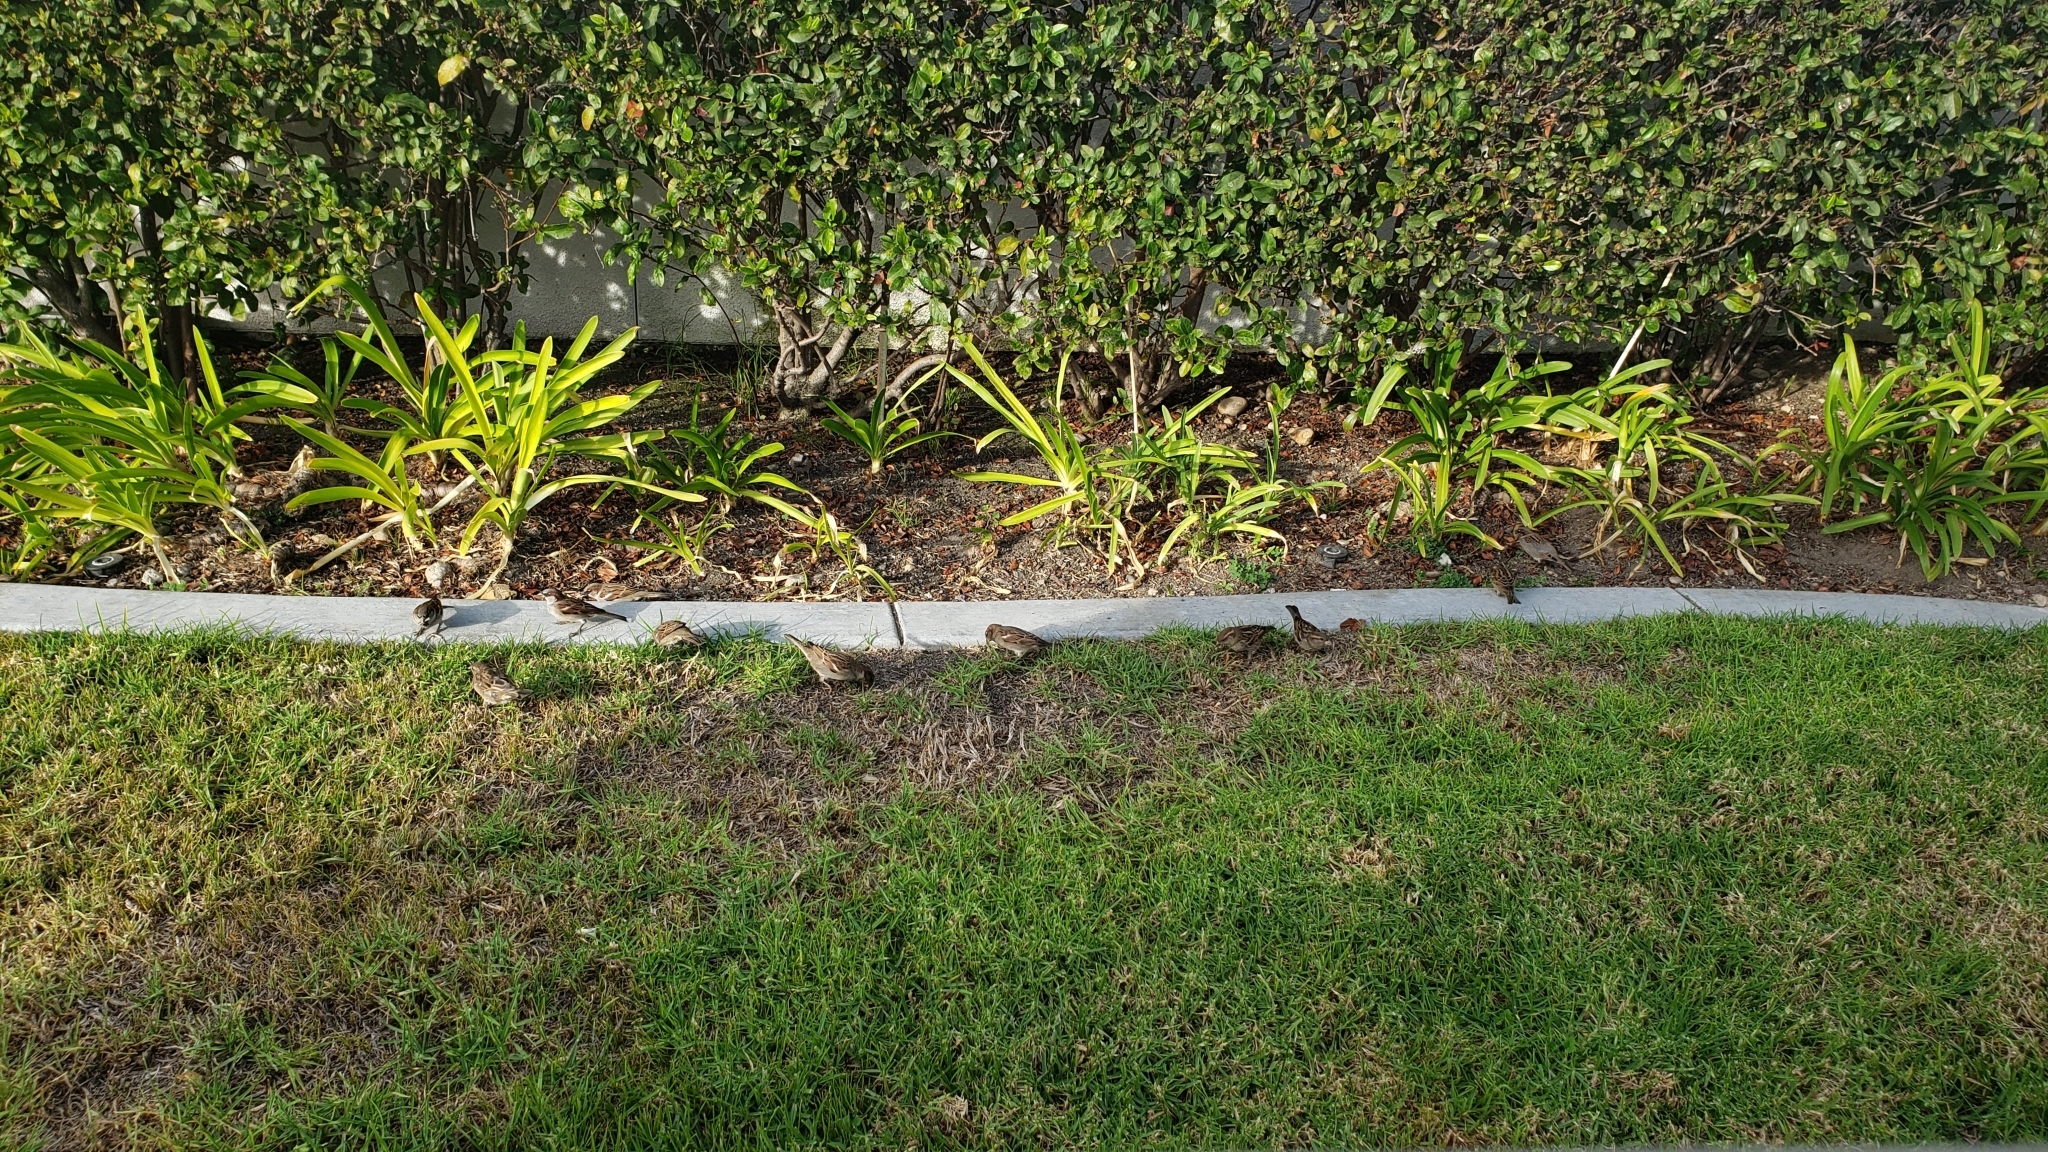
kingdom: Animalia
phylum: Chordata
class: Aves
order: Passeriformes
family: Passeridae
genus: Passer
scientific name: Passer domesticus
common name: House sparrow
